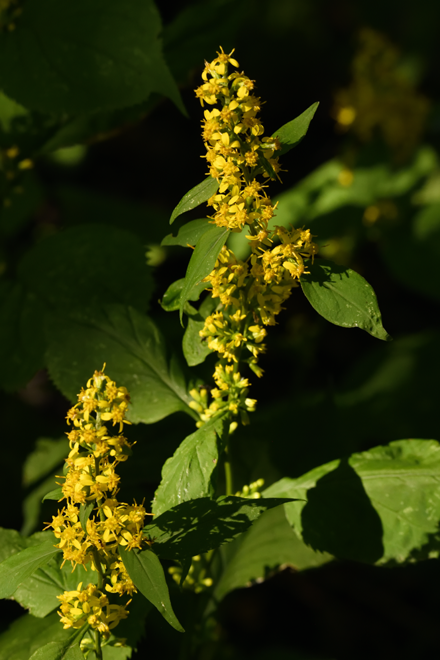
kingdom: Plantae
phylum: Tracheophyta
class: Magnoliopsida
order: Asterales
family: Asteraceae
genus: Solidago
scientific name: Solidago flexicaulis
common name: Zig-zag goldenrod
